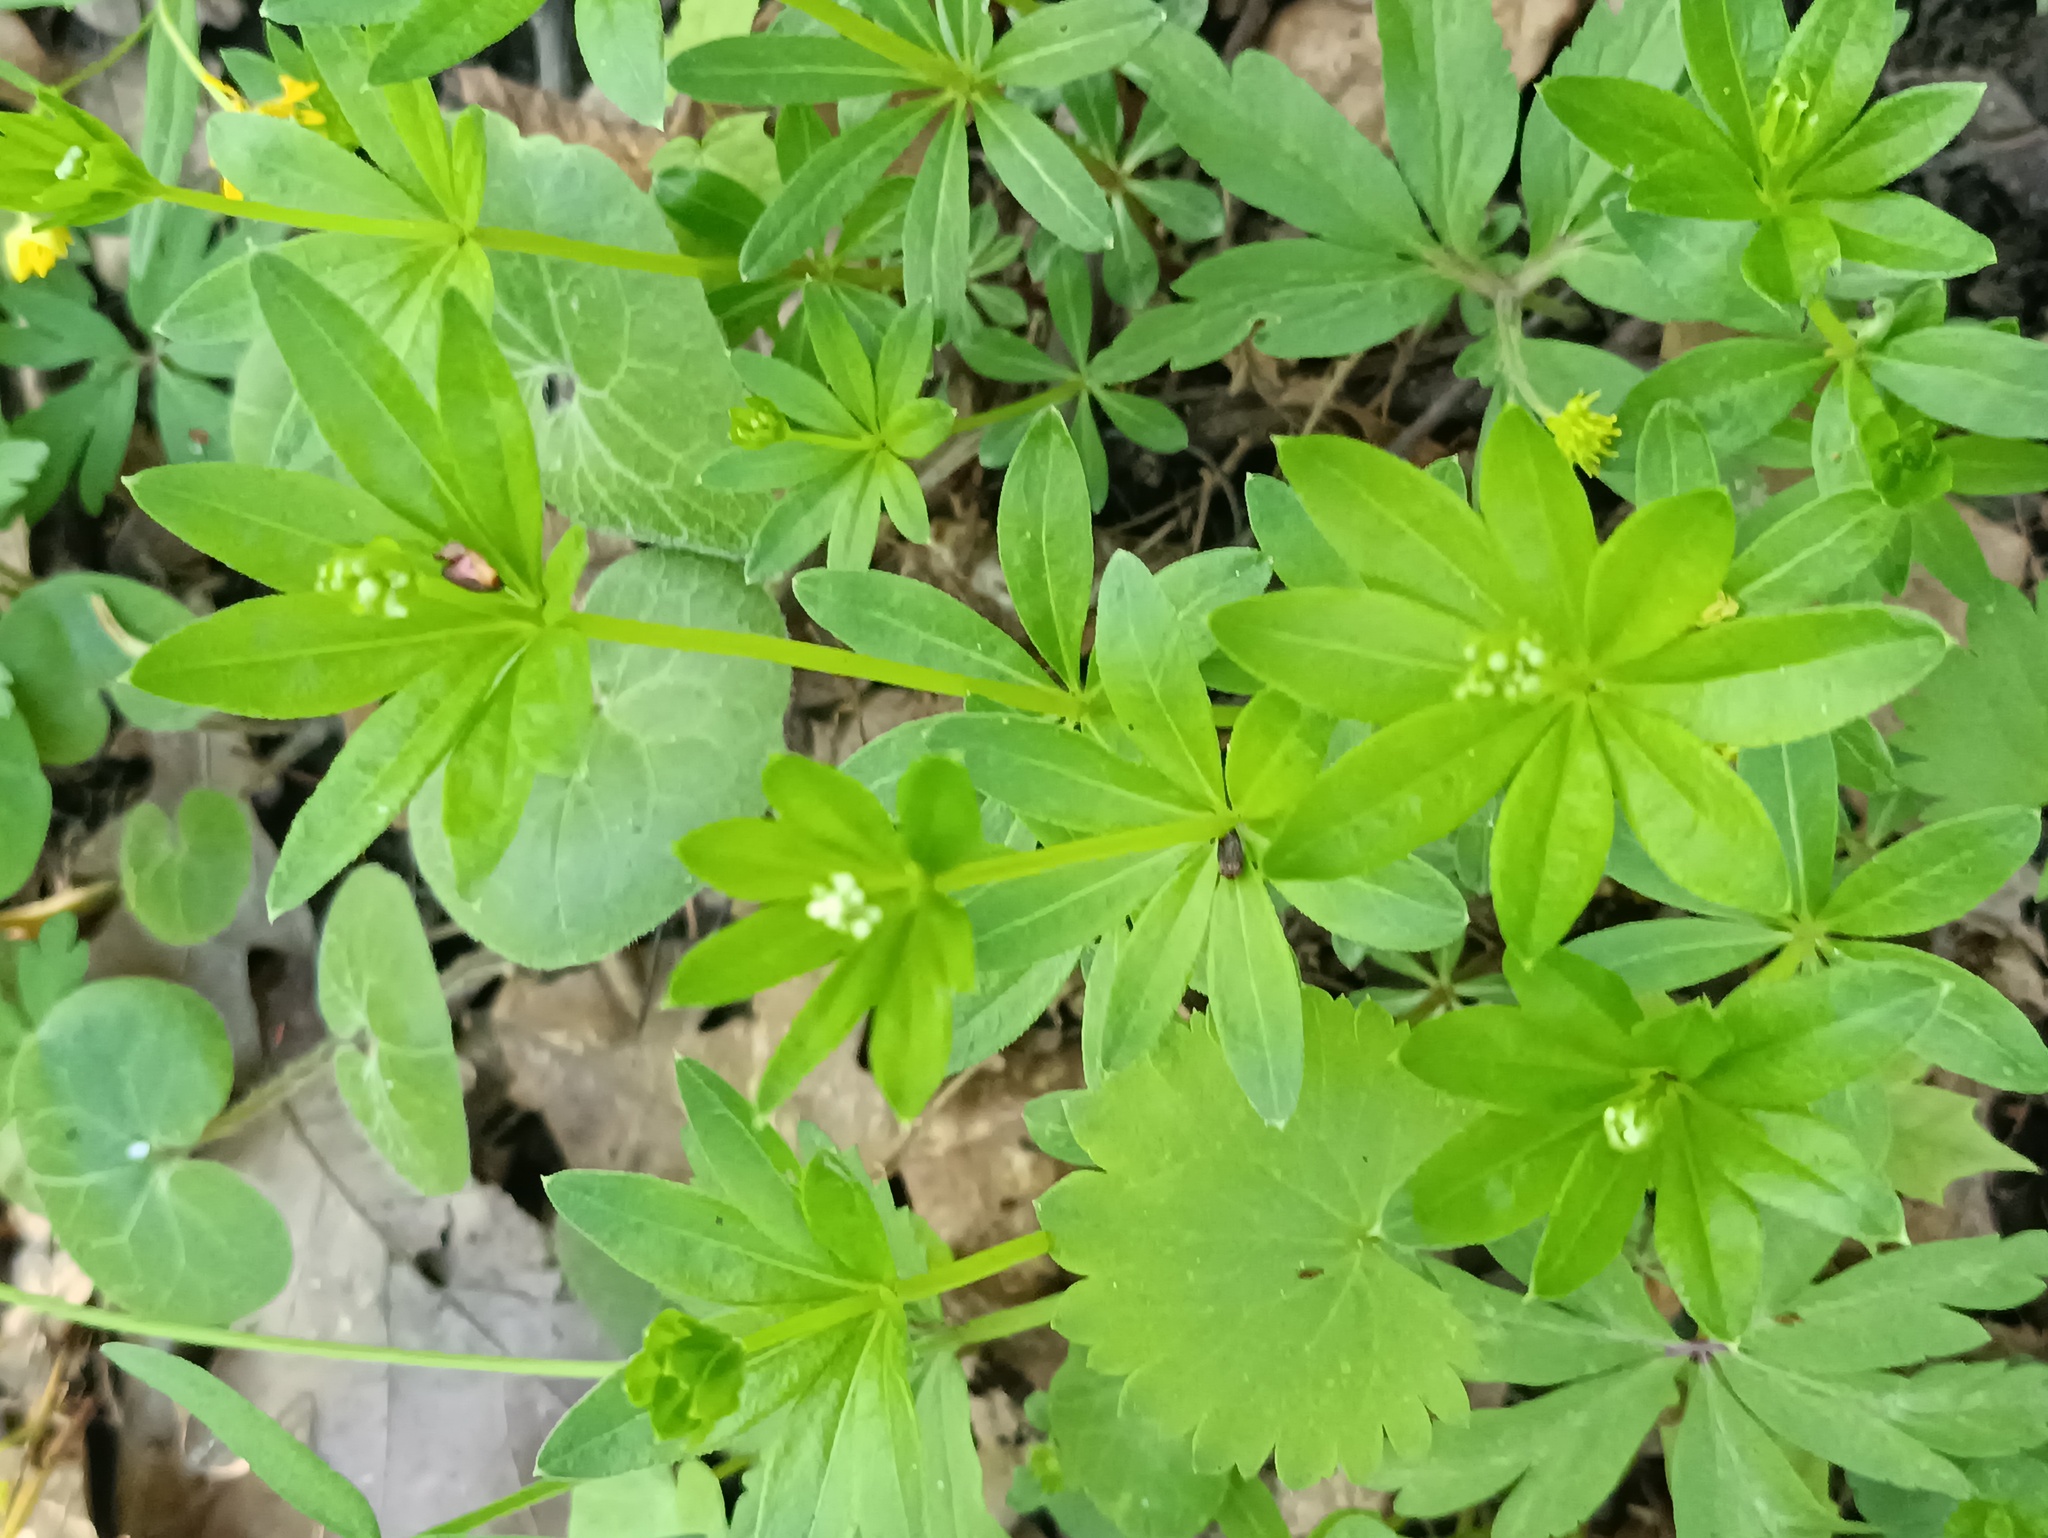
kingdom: Plantae
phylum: Tracheophyta
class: Magnoliopsida
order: Gentianales
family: Rubiaceae
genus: Galium
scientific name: Galium odoratum
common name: Sweet woodruff
